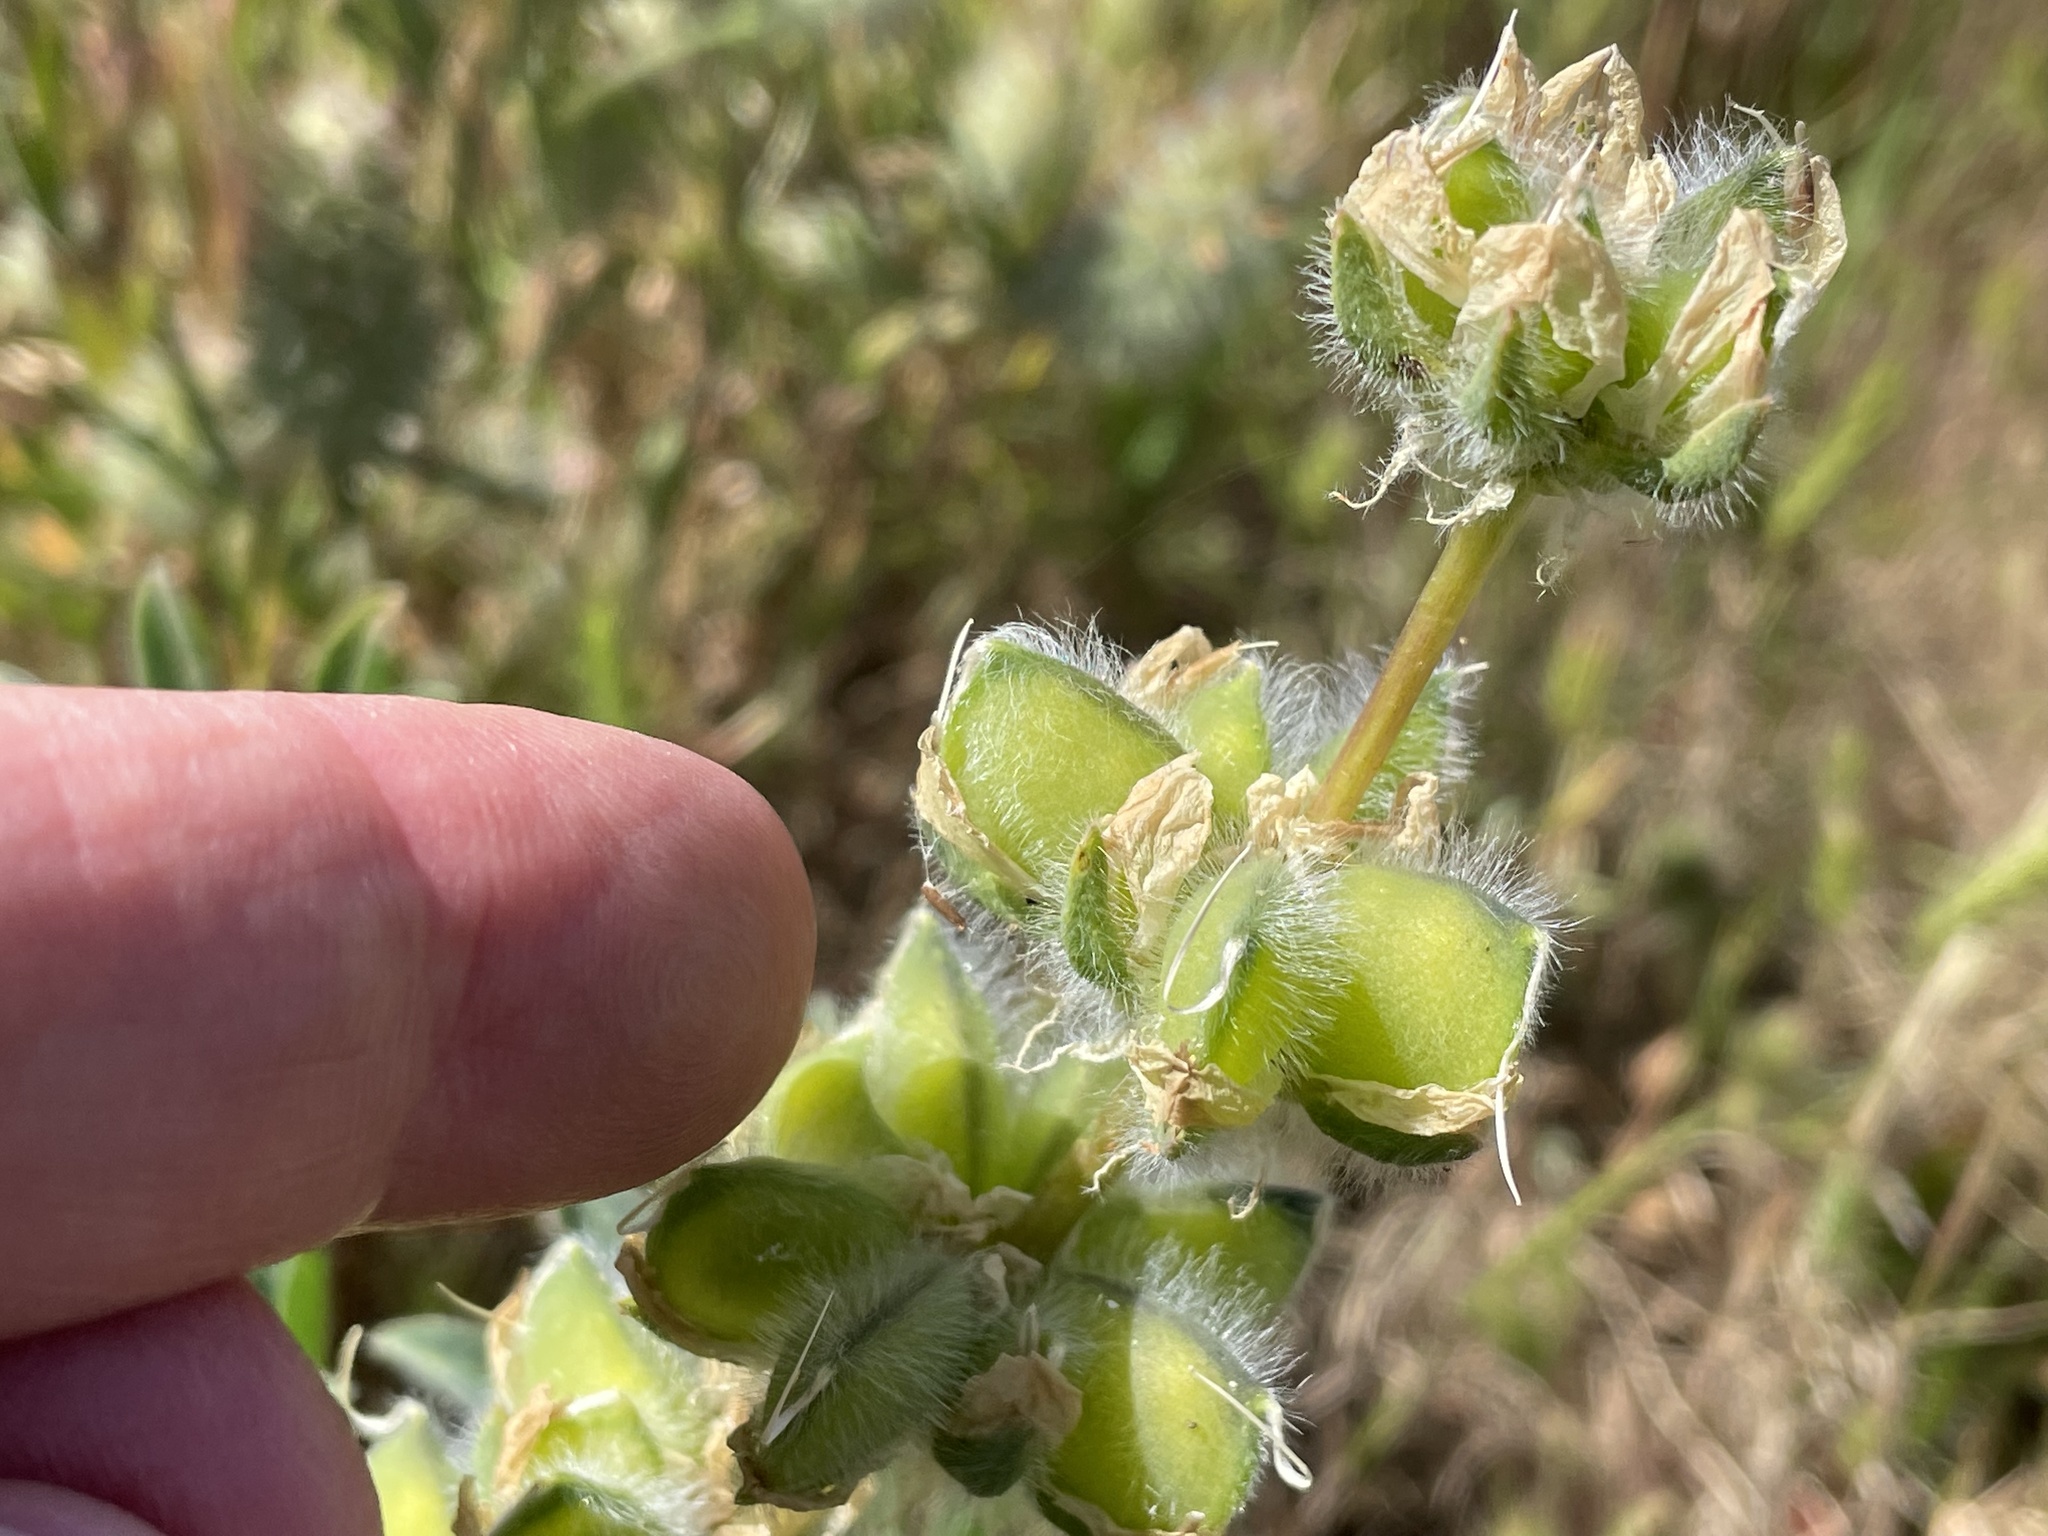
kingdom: Plantae
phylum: Tracheophyta
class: Magnoliopsida
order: Fabales
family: Fabaceae
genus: Lupinus
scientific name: Lupinus microcarpus
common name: Chick lupine
